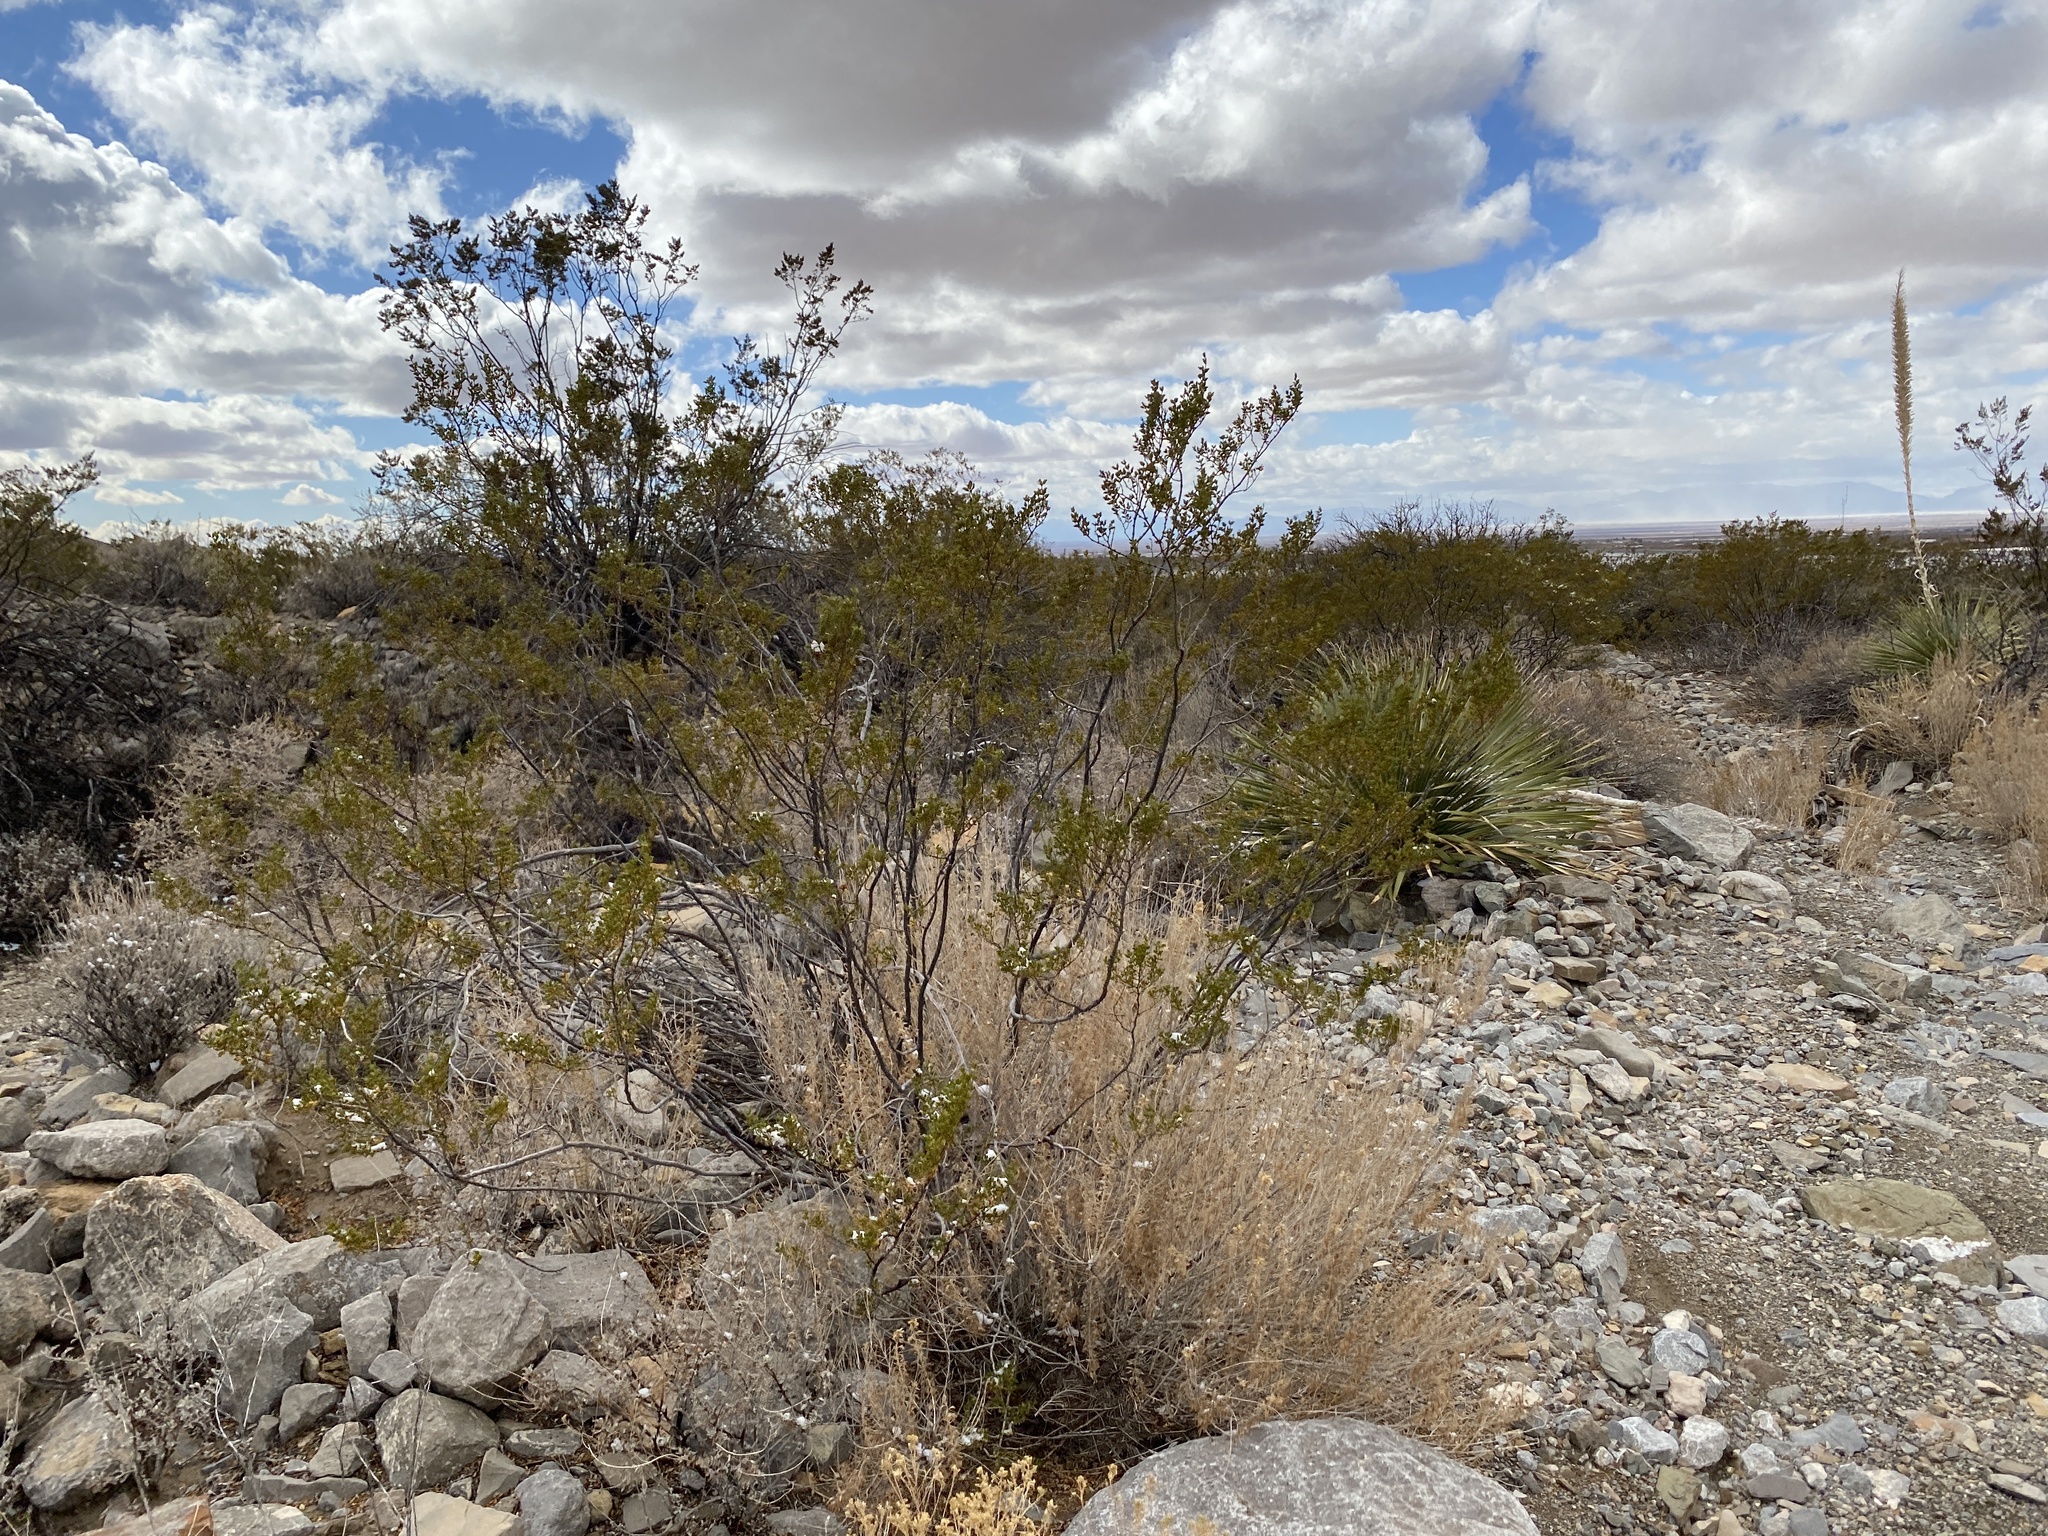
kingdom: Plantae
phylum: Tracheophyta
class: Magnoliopsida
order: Zygophyllales
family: Zygophyllaceae
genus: Larrea
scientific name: Larrea tridentata
